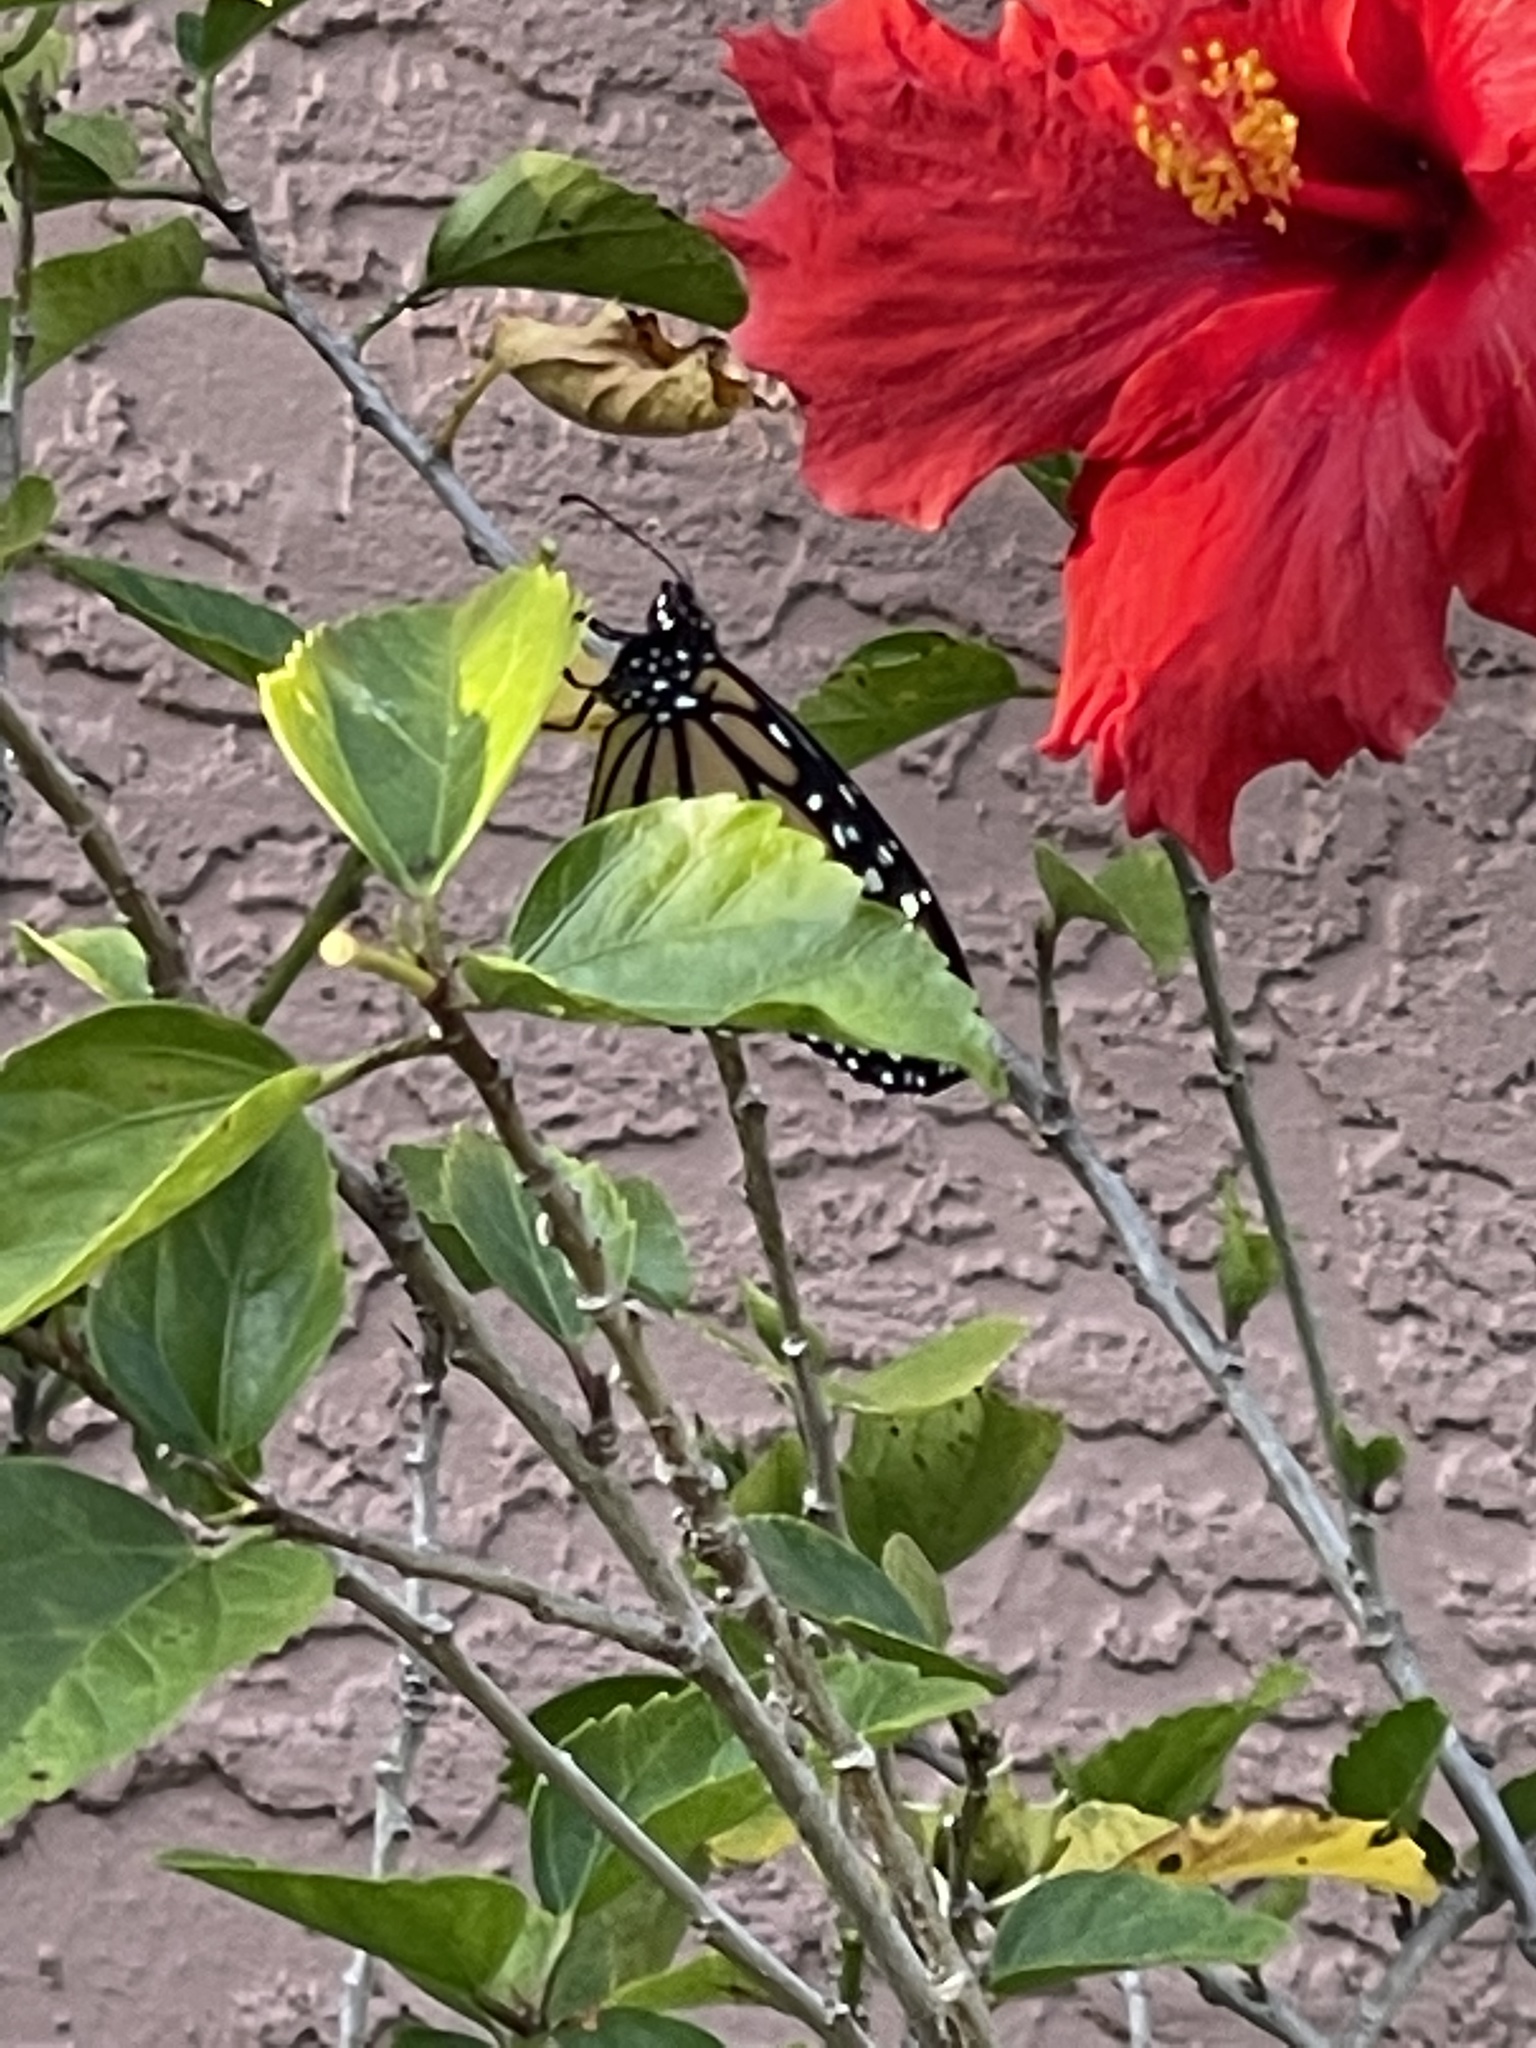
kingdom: Animalia
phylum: Arthropoda
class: Insecta
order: Lepidoptera
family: Nymphalidae
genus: Danaus
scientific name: Danaus plexippus
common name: Monarch
